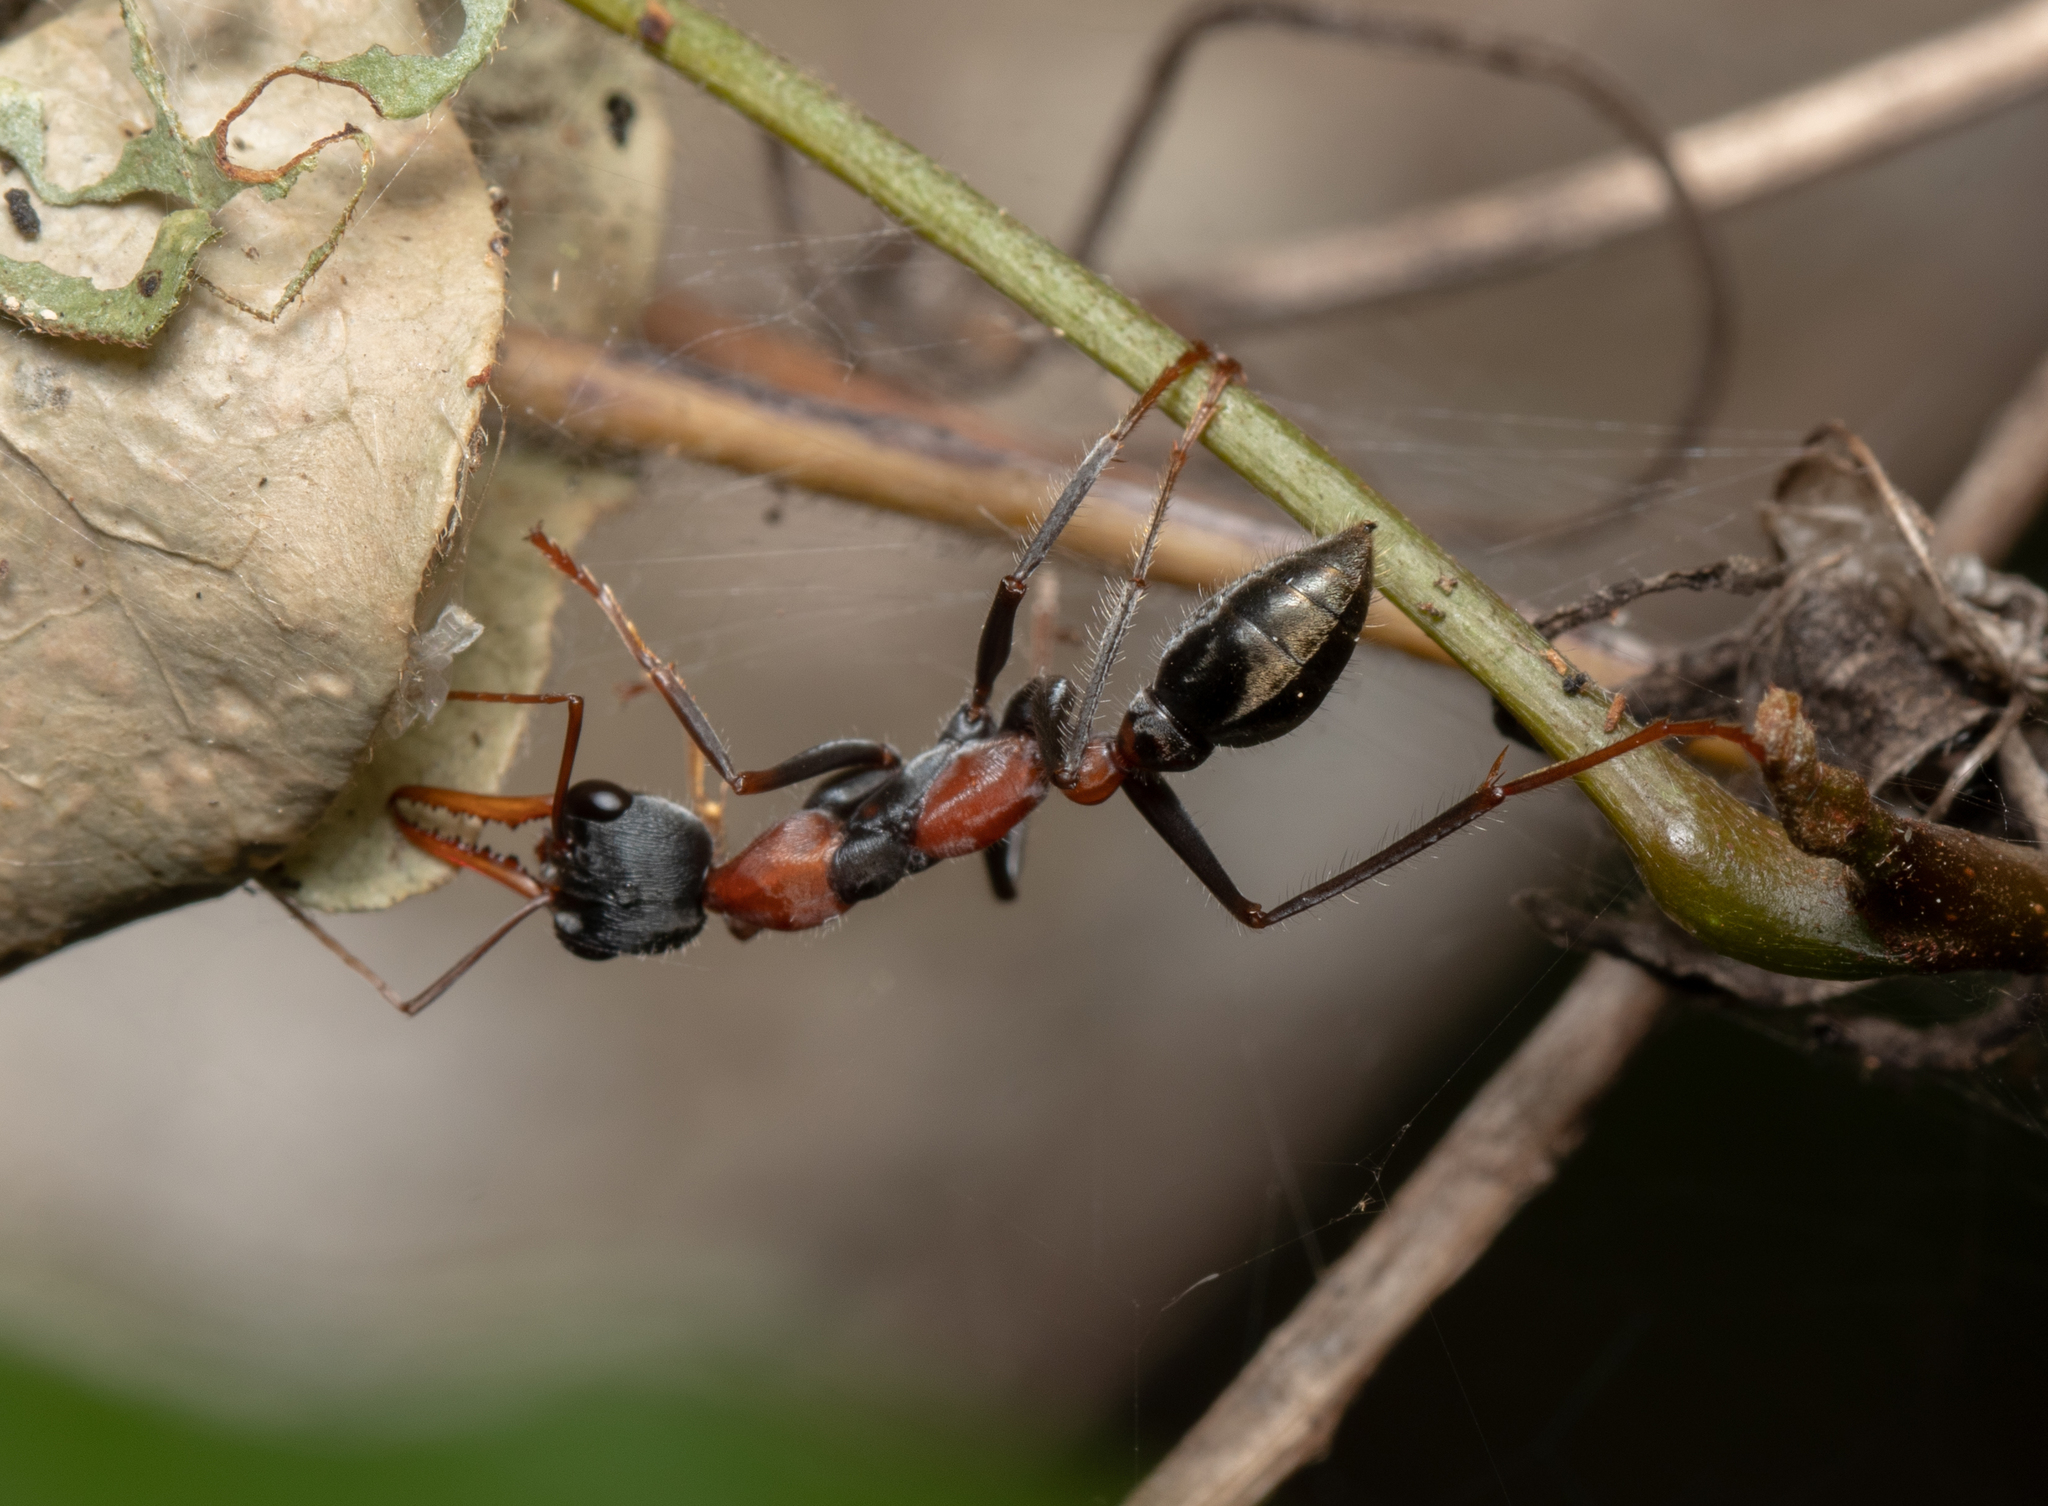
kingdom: Animalia
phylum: Arthropoda
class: Insecta
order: Hymenoptera
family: Formicidae
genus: Myrmecia
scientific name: Myrmecia nigrocincta
